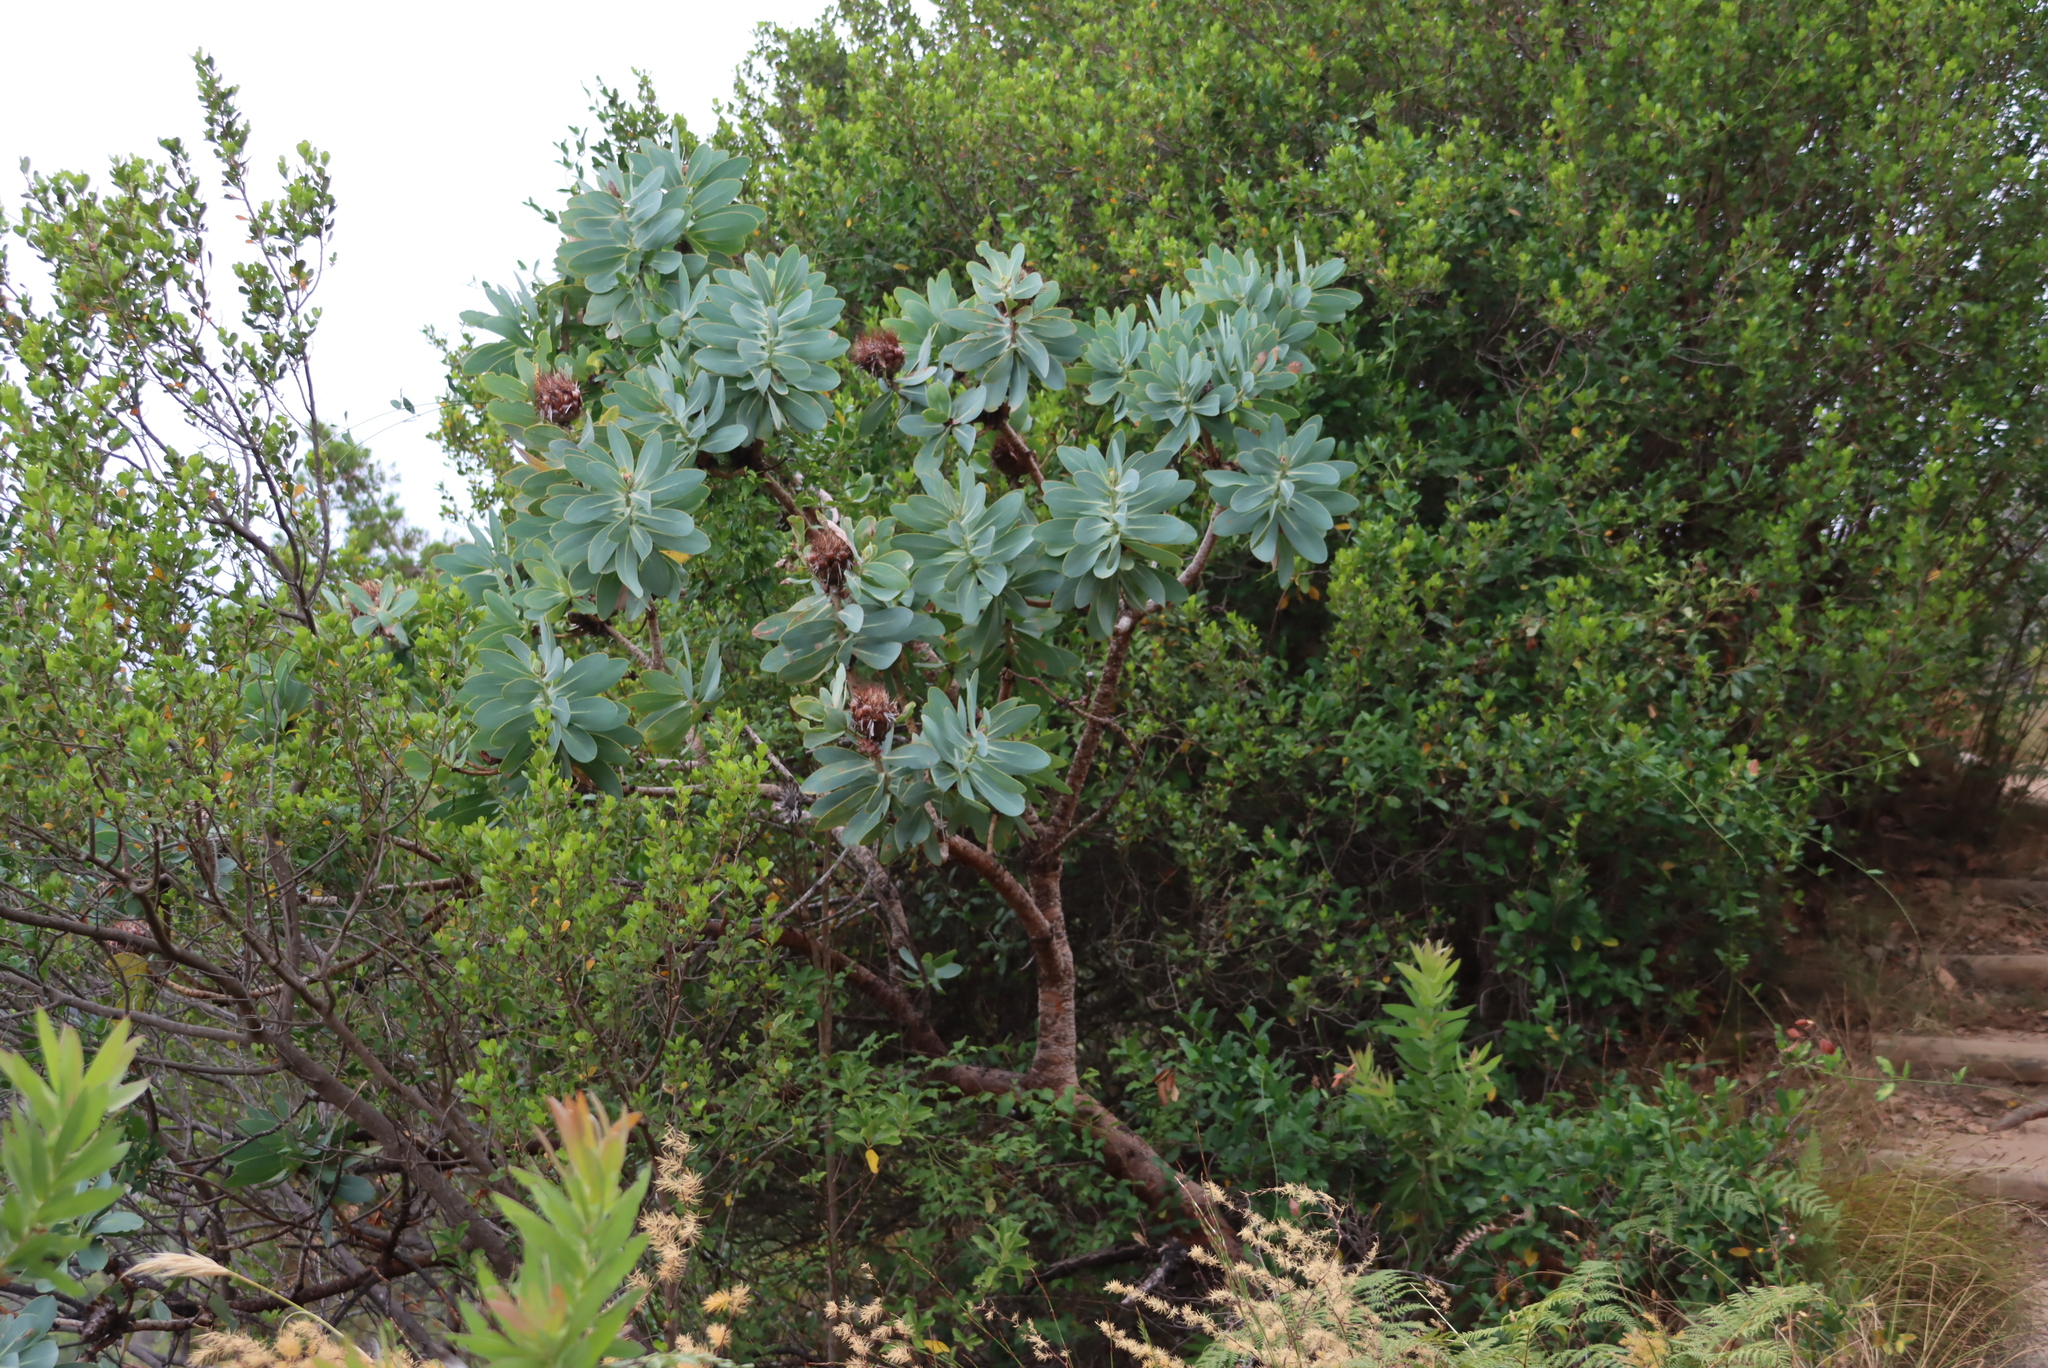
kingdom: Plantae
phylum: Tracheophyta
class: Magnoliopsida
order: Proteales
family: Proteaceae
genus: Protea
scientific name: Protea nitida
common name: Tree protea
